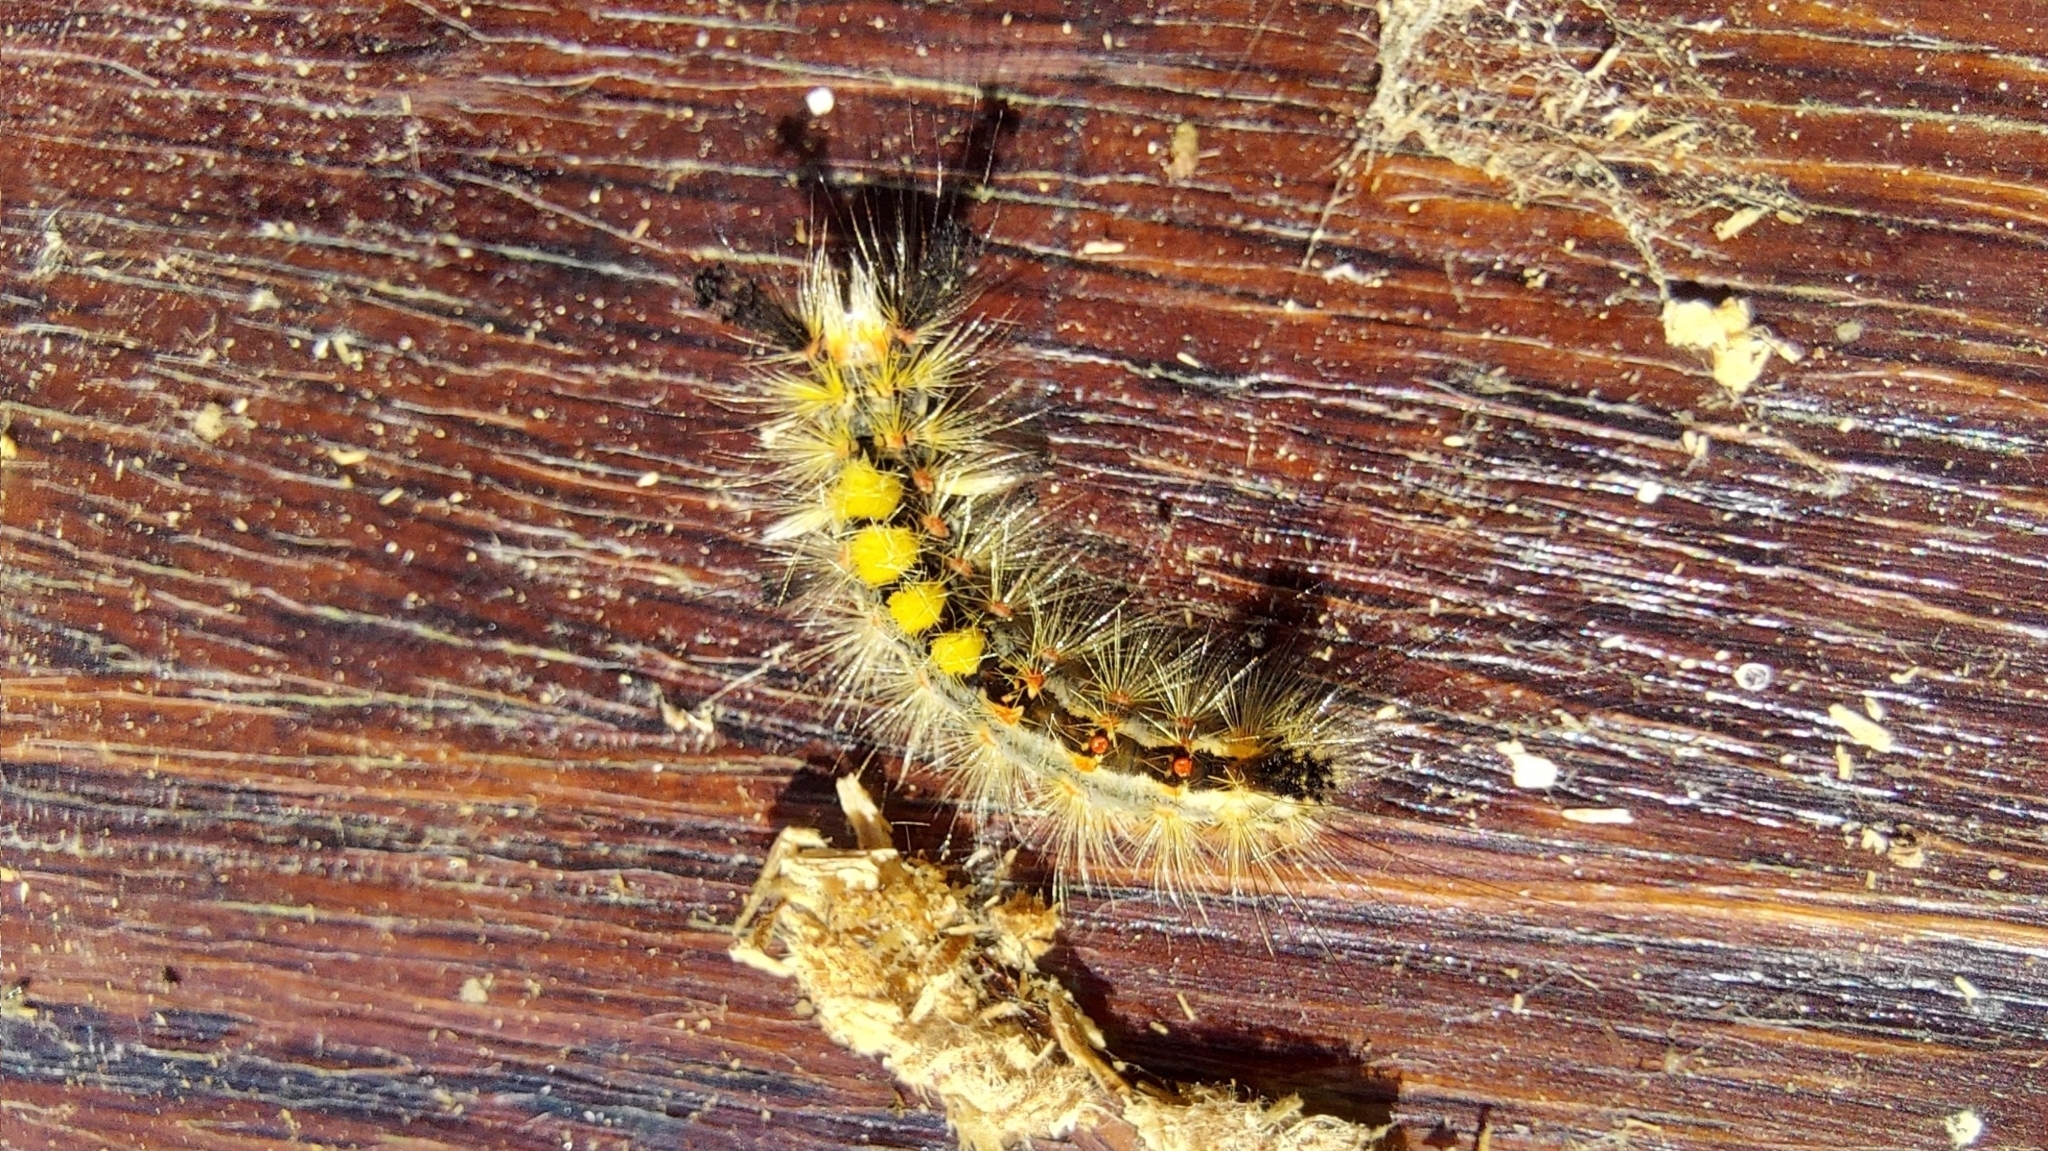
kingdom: Animalia
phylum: Arthropoda
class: Insecta
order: Lepidoptera
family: Erebidae
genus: Orgyia
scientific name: Orgyia antiqua
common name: Vapourer
